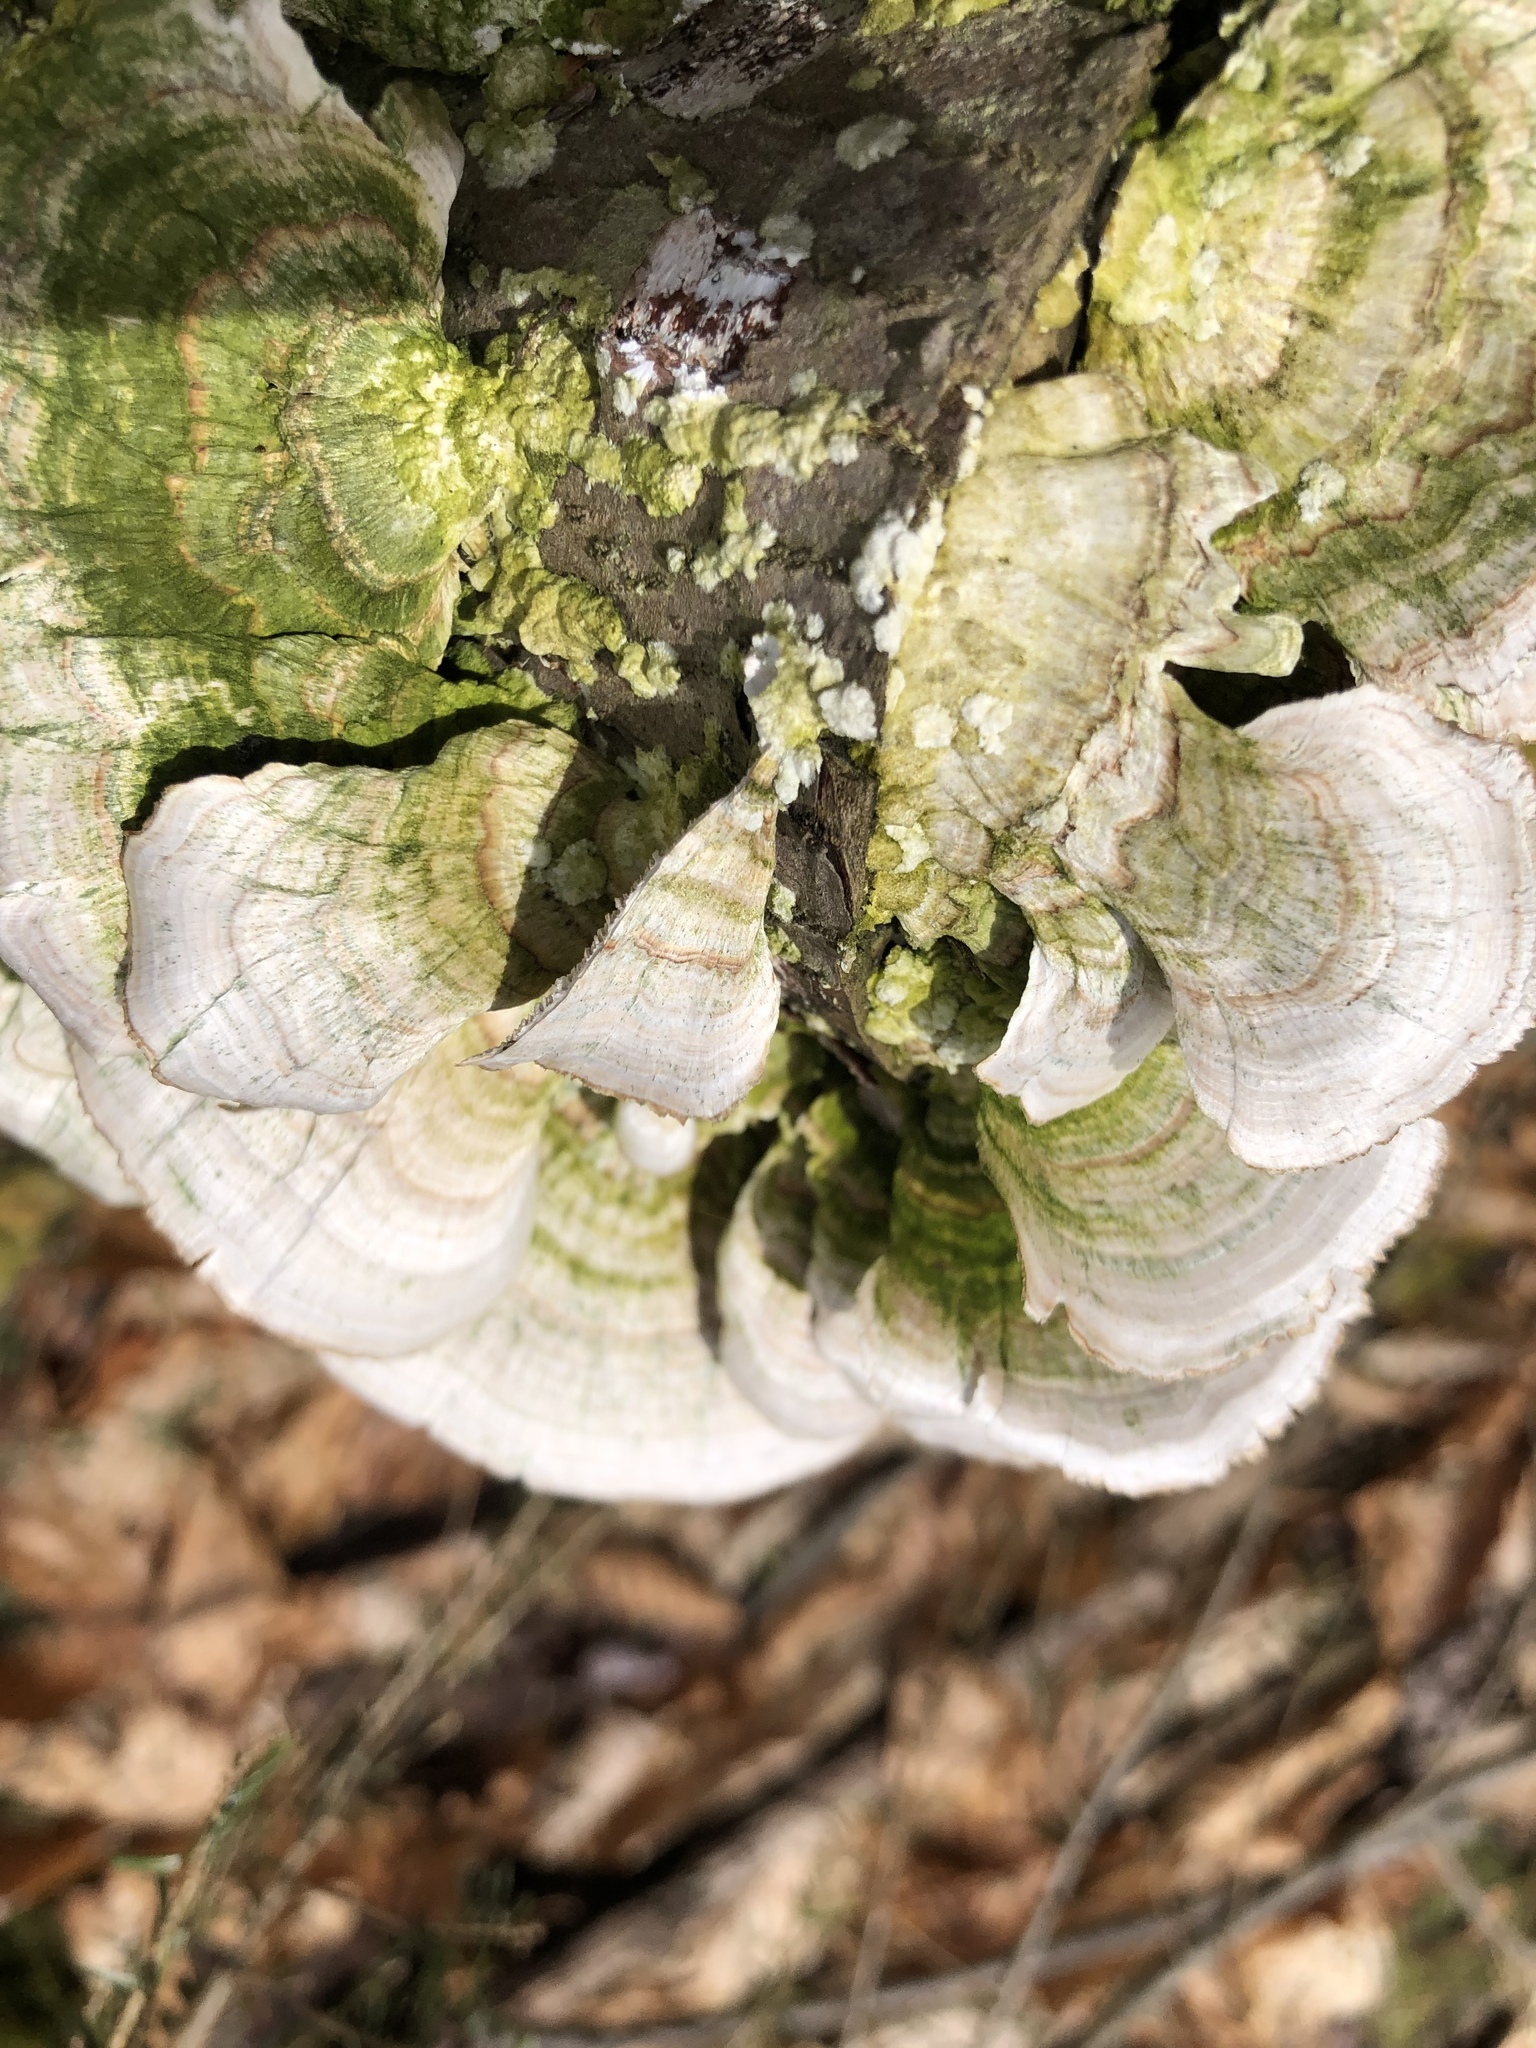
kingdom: Fungi
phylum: Basidiomycota
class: Agaricomycetes
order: Hymenochaetales
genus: Trichaptum
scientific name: Trichaptum biforme
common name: Violet-toothed polypore
